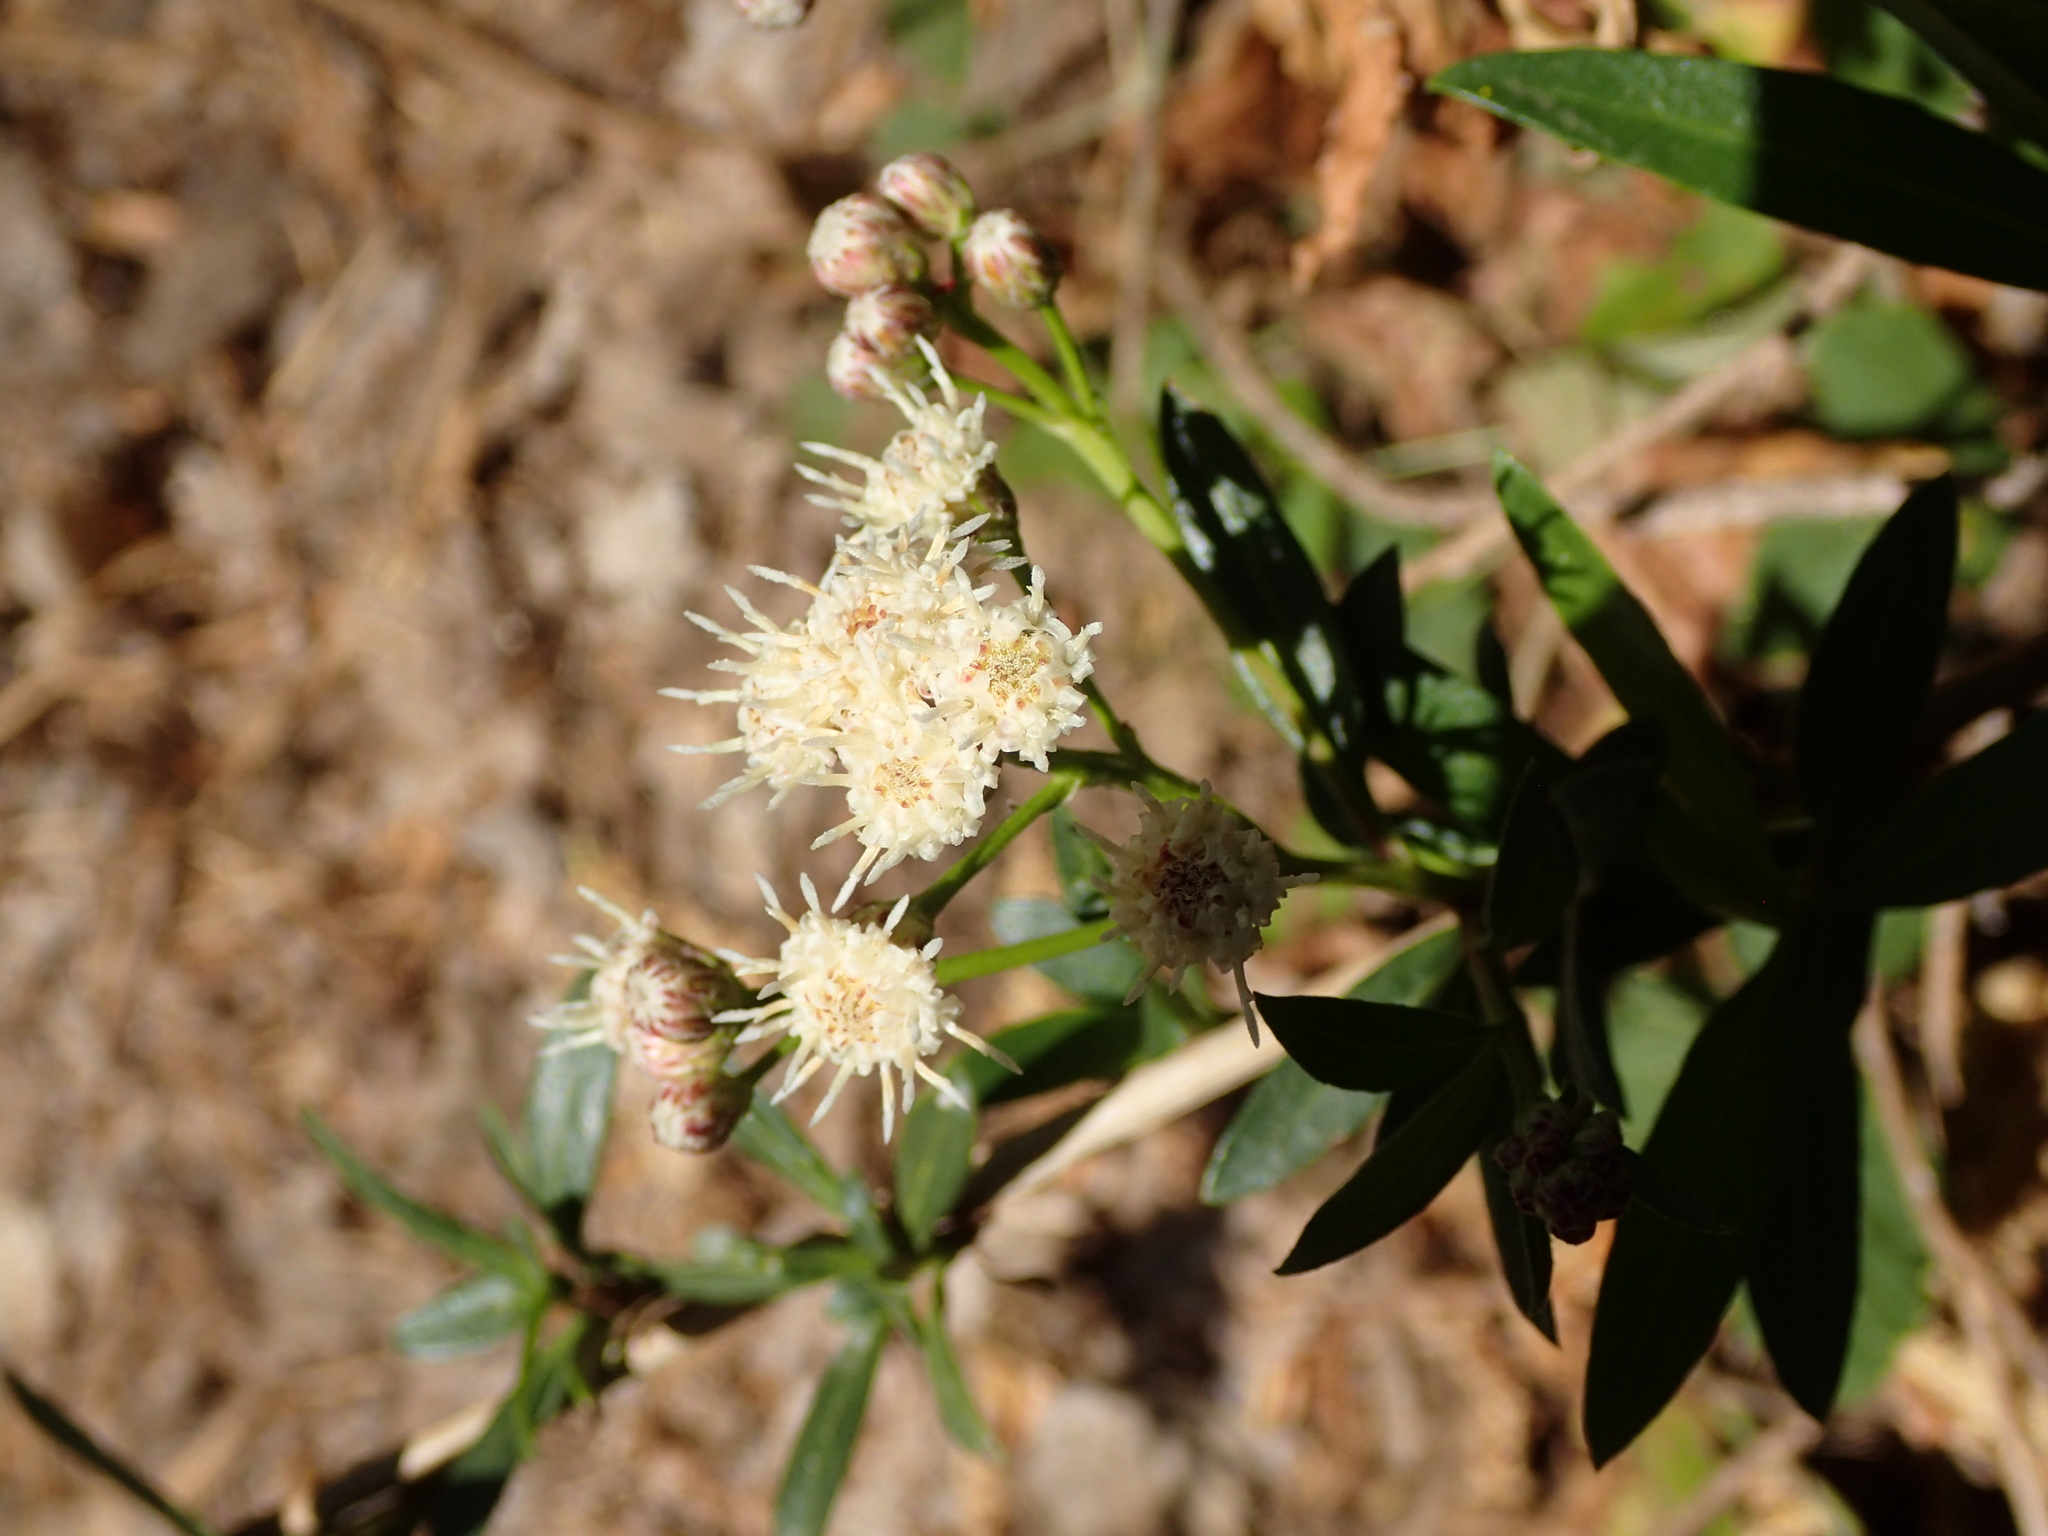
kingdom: Plantae
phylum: Tracheophyta
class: Magnoliopsida
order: Asterales
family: Asteraceae
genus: Baccharis
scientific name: Baccharis salicifolia
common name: Sticky baccharis
